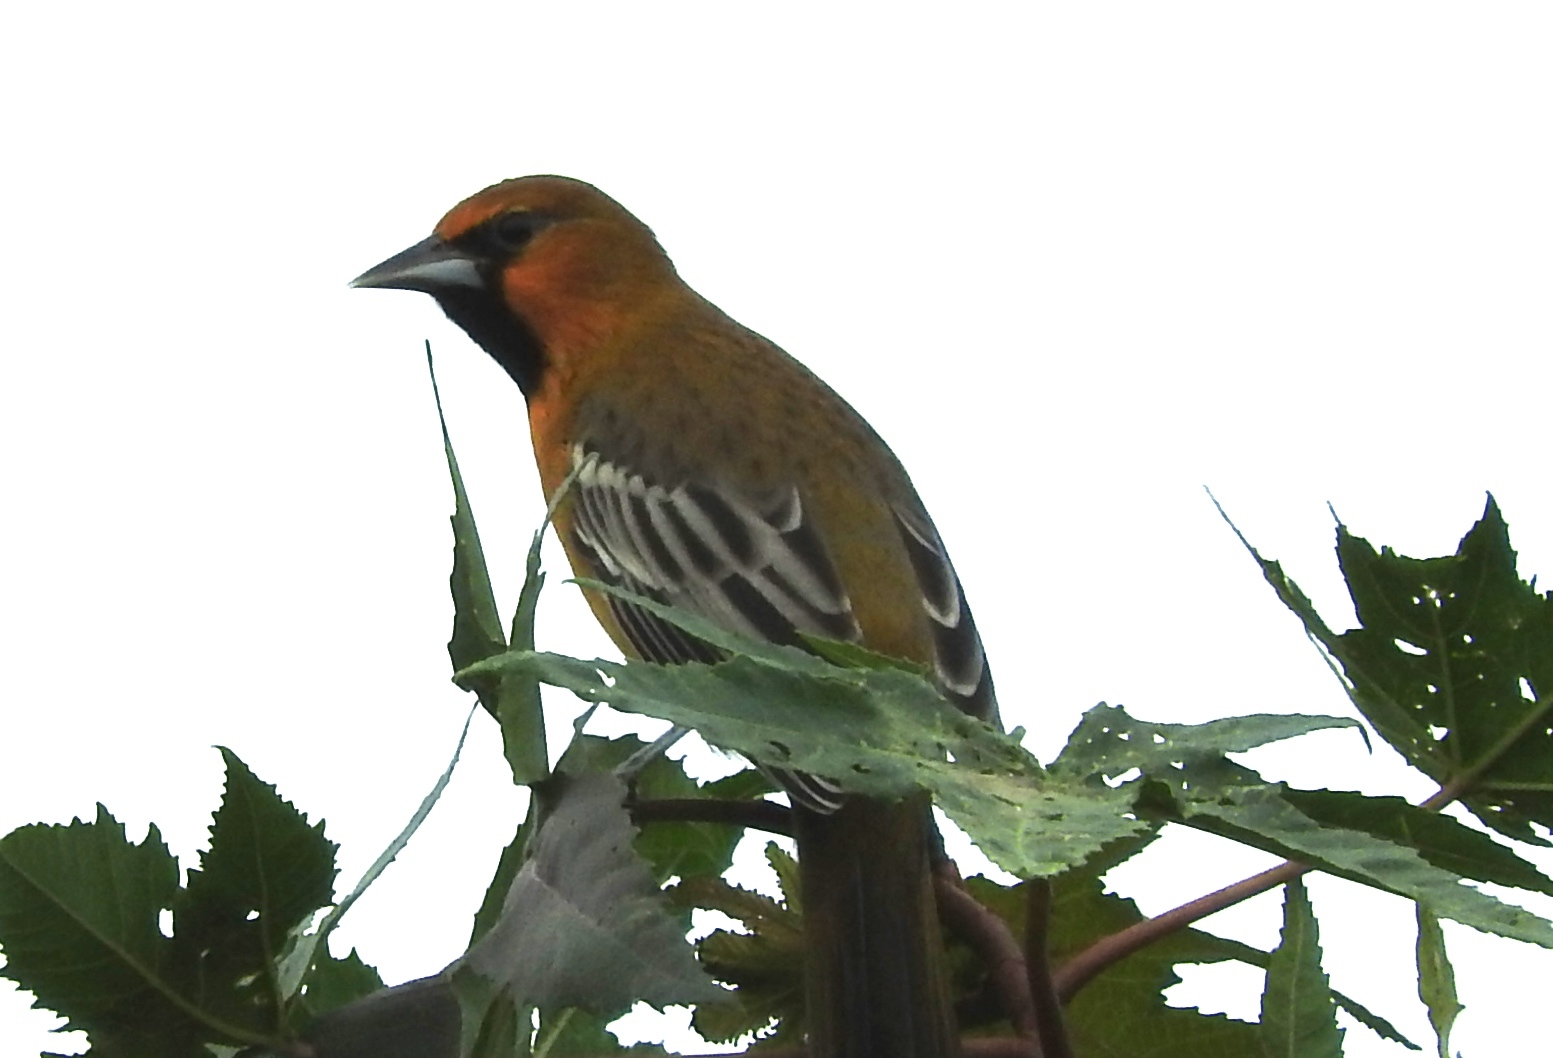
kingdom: Animalia
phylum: Chordata
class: Aves
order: Passeriformes
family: Icteridae
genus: Icterus
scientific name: Icterus pustulatus
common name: Streak-backed oriole
